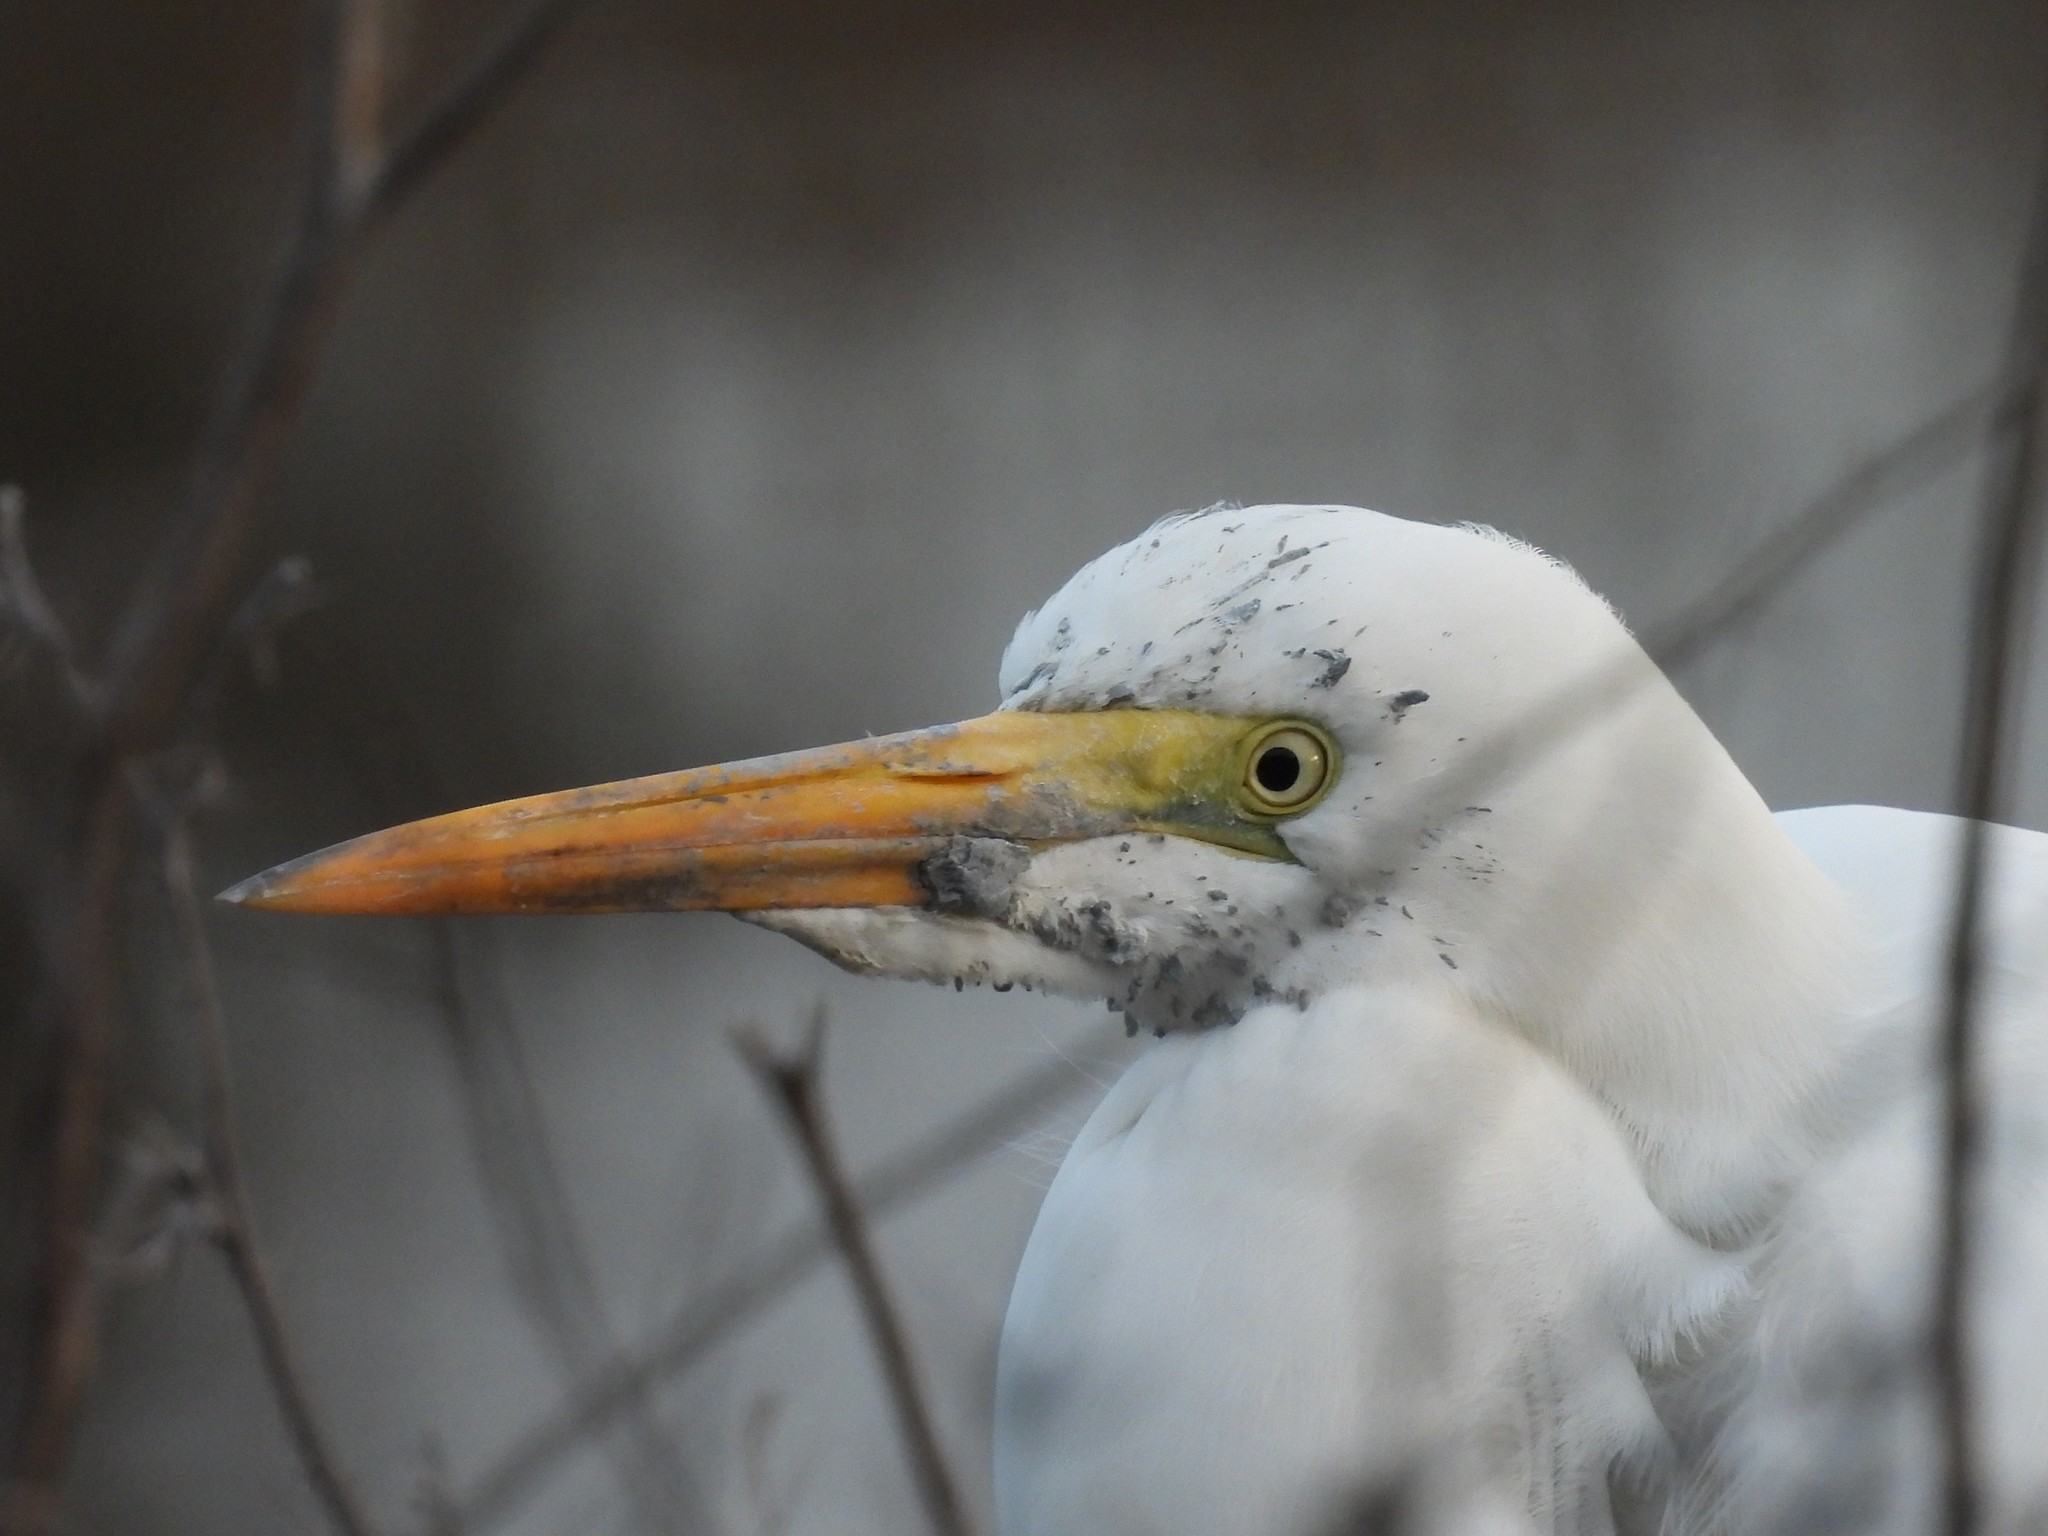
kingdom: Animalia
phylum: Chordata
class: Aves
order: Pelecaniformes
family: Ardeidae
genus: Ardea
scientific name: Ardea alba
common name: Great egret
